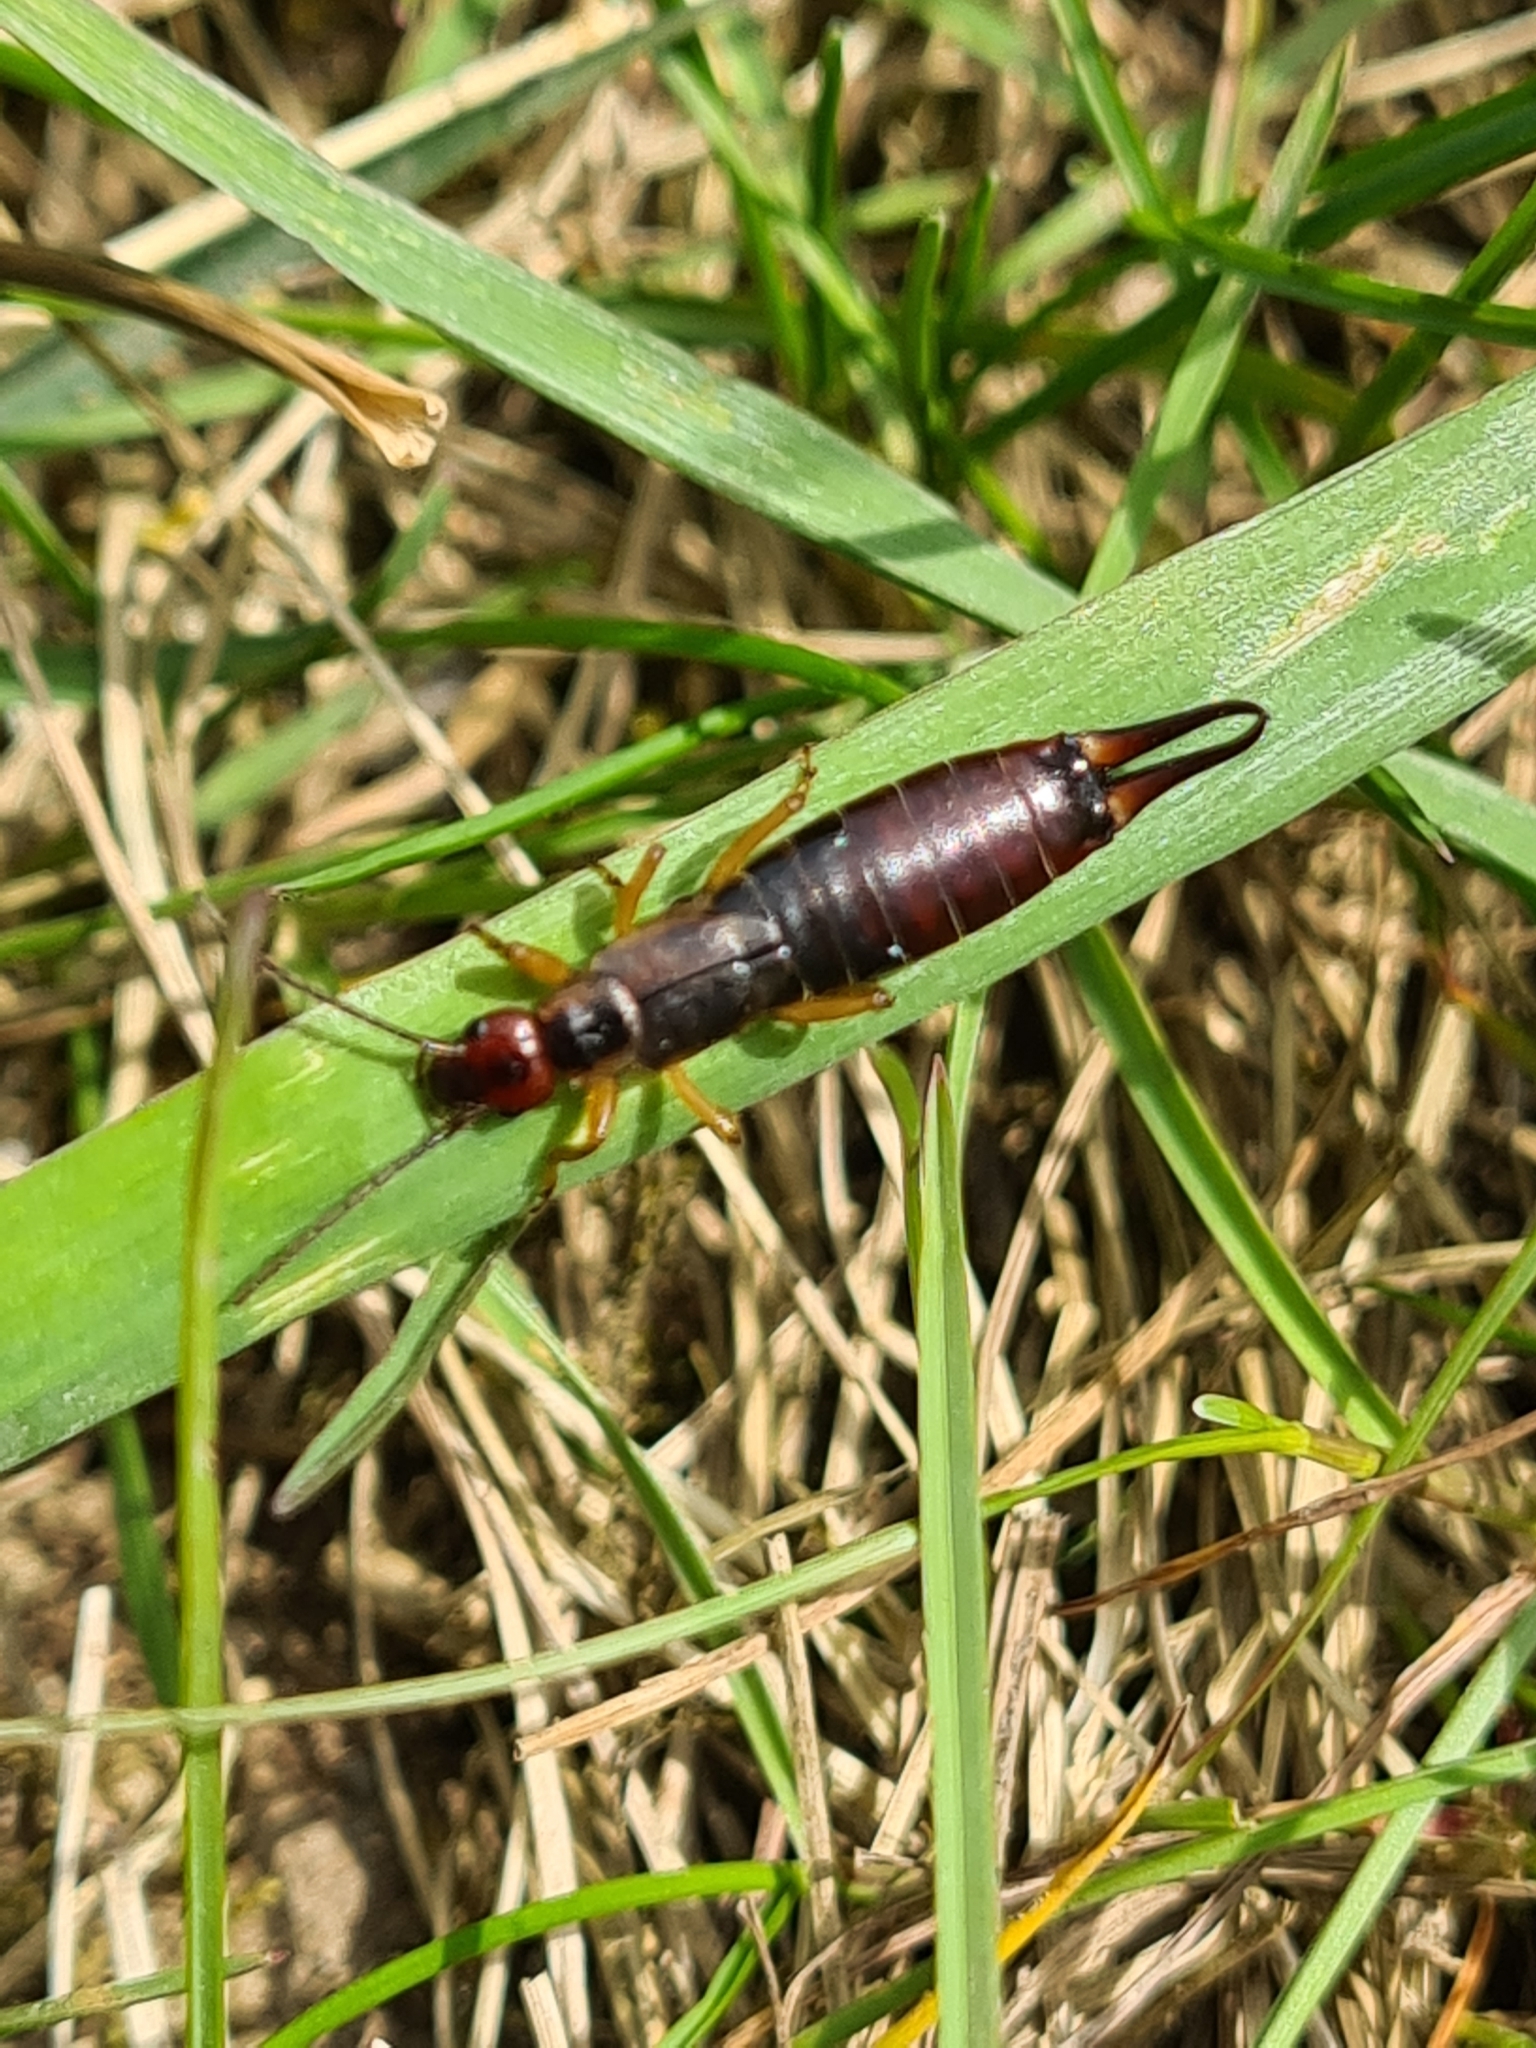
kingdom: Animalia
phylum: Arthropoda
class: Insecta
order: Dermaptera
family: Forficulidae
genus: Forficula
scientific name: Forficula
